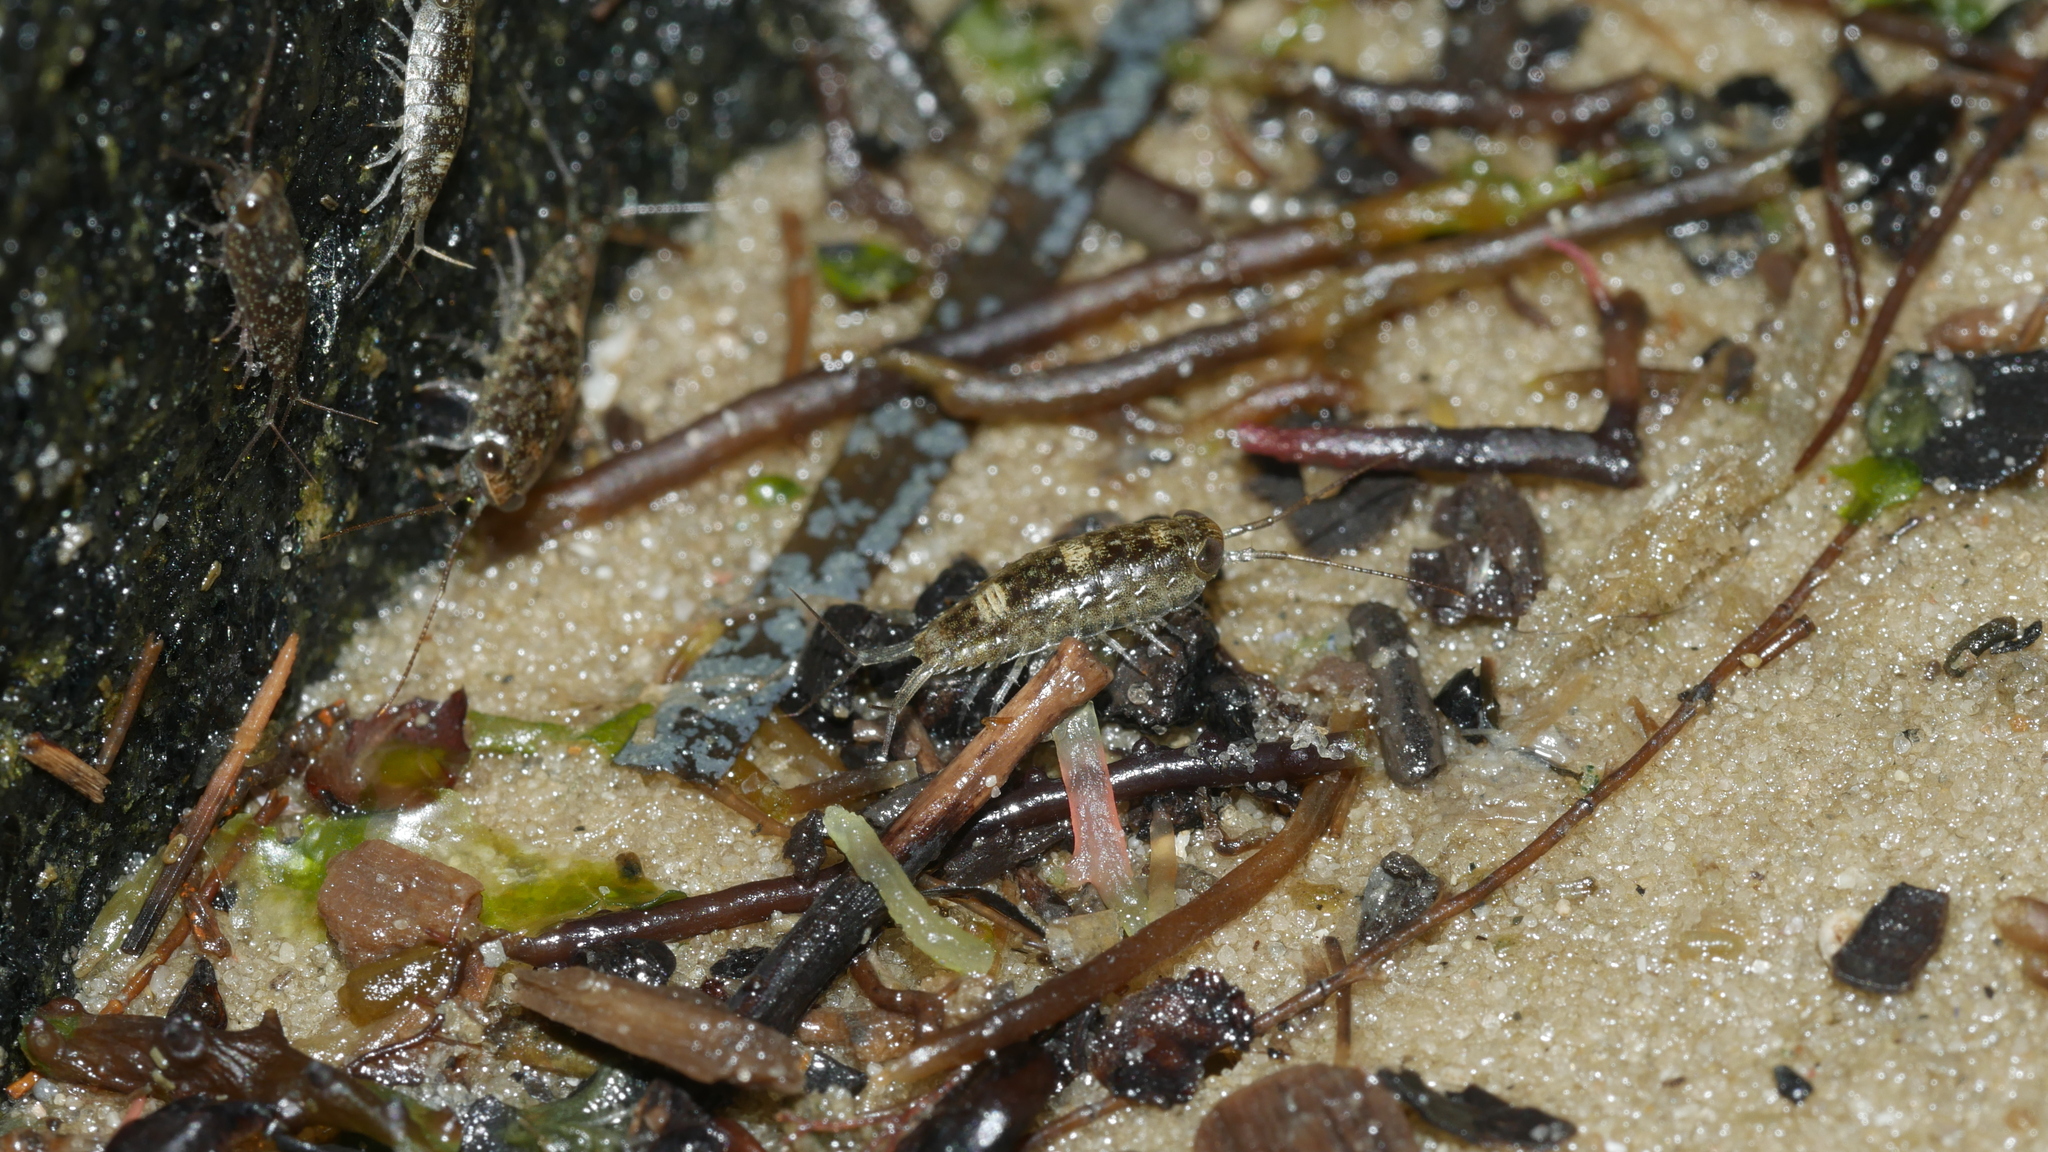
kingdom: Animalia
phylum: Arthropoda
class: Malacostraca
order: Isopoda
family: Ligiidae
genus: Ligia
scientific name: Ligia exotica
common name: Wharf roach
